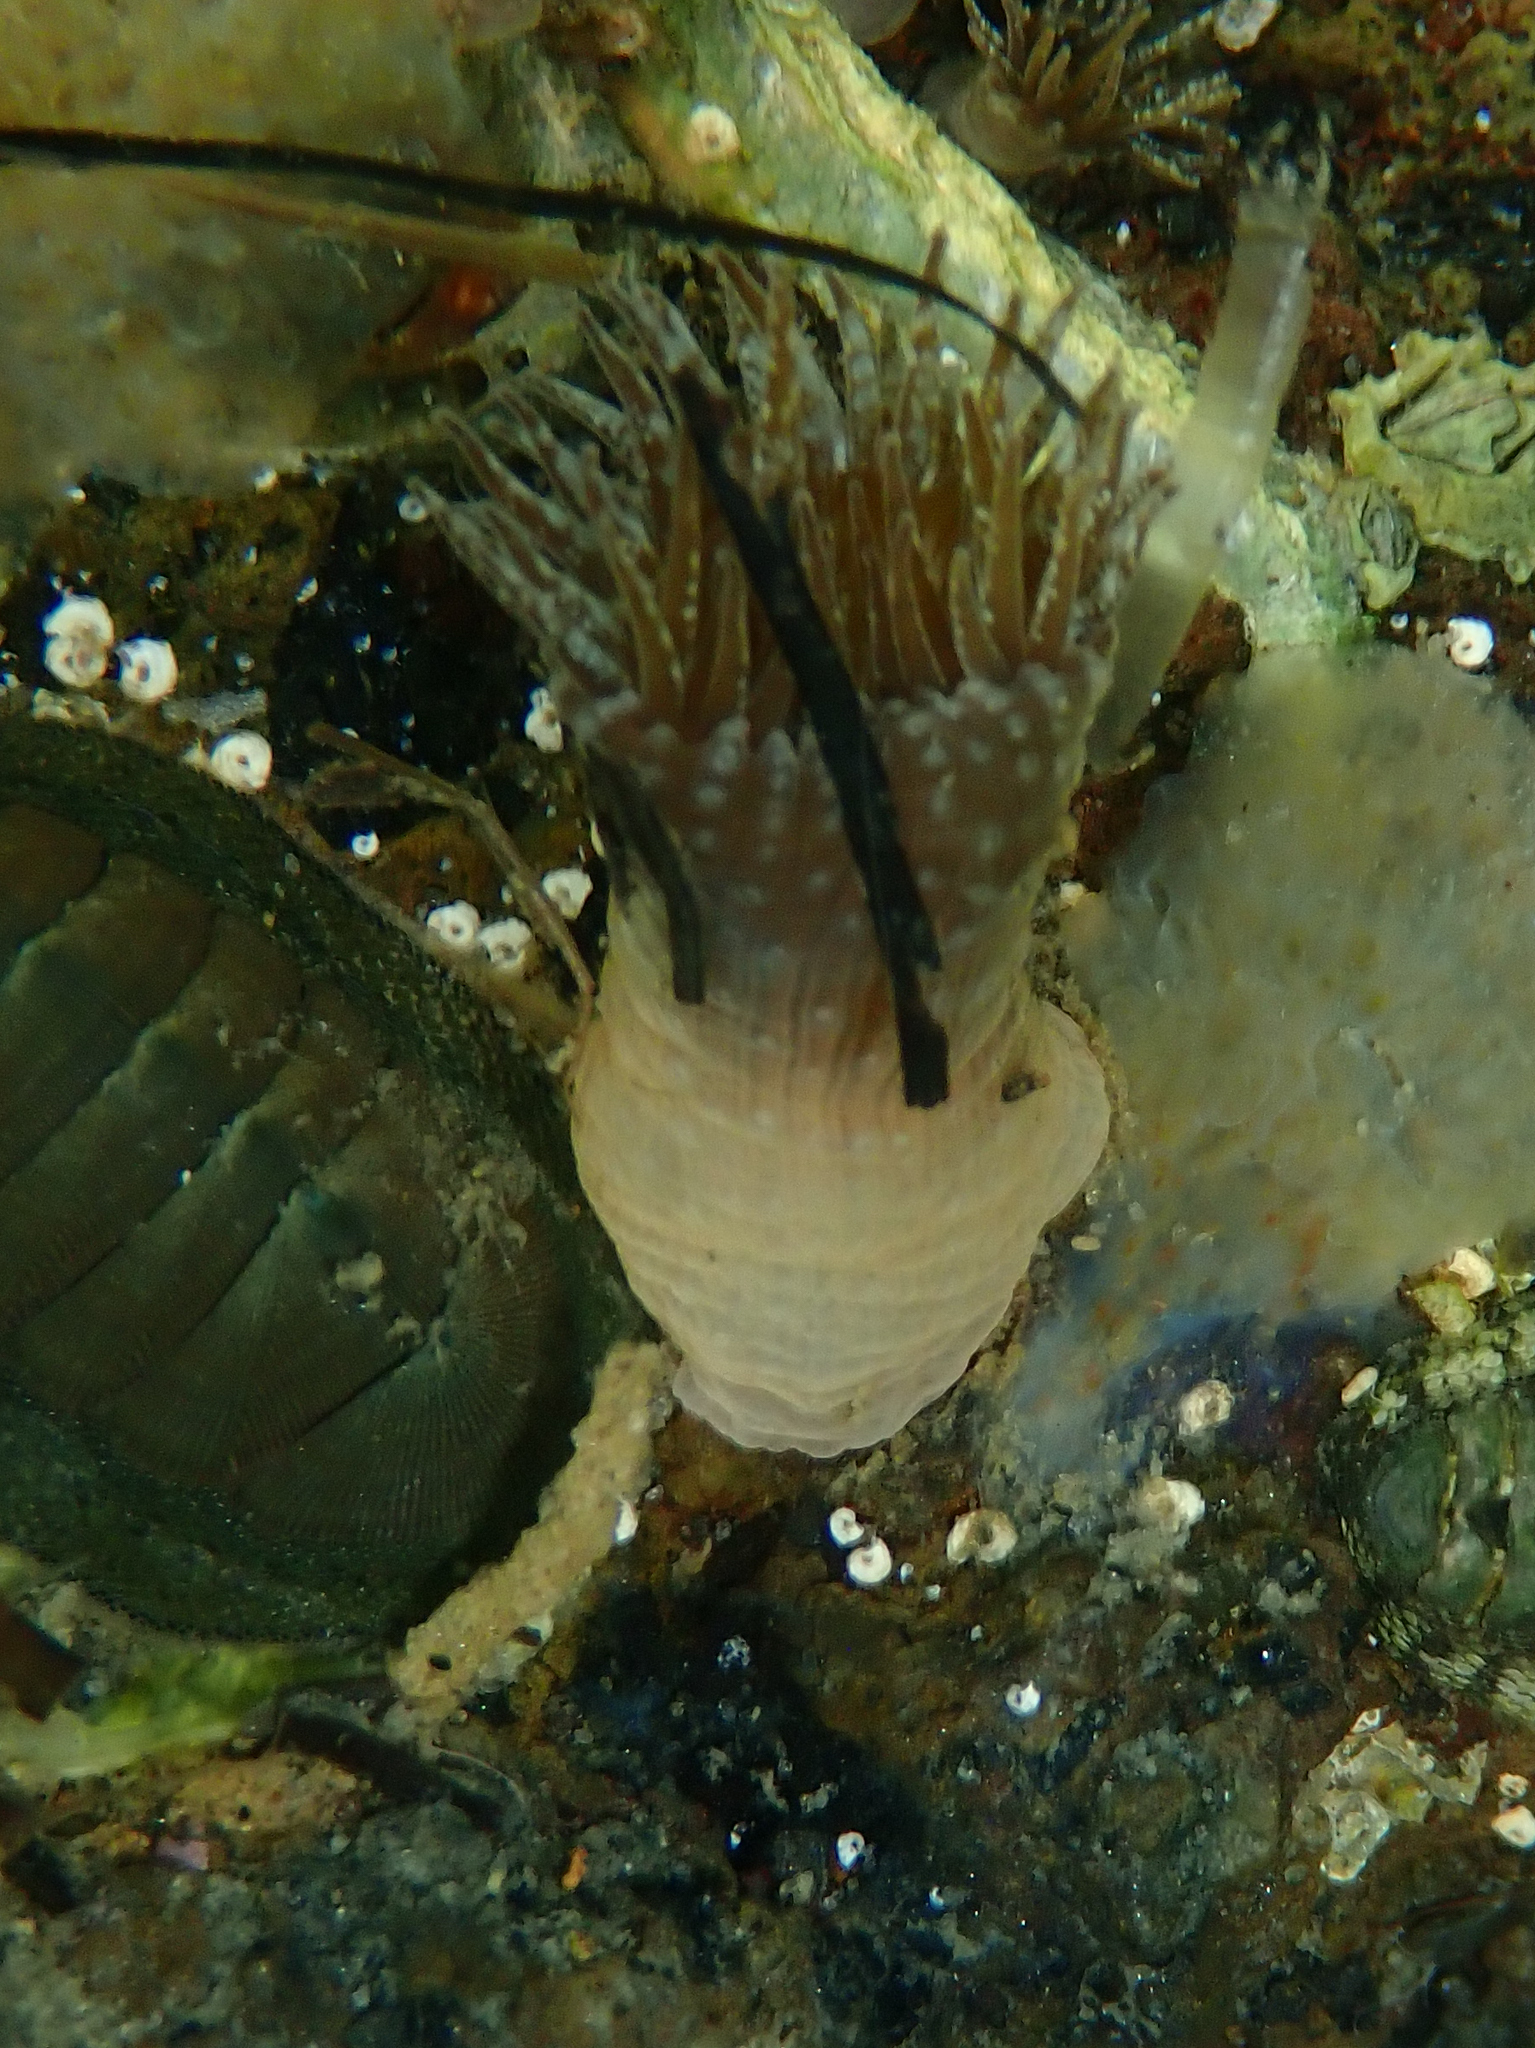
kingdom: Animalia
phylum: Cnidaria
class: Anthozoa
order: Actiniaria
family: Actiniidae
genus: Anthopleura
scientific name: Anthopleura hermaphroditica
